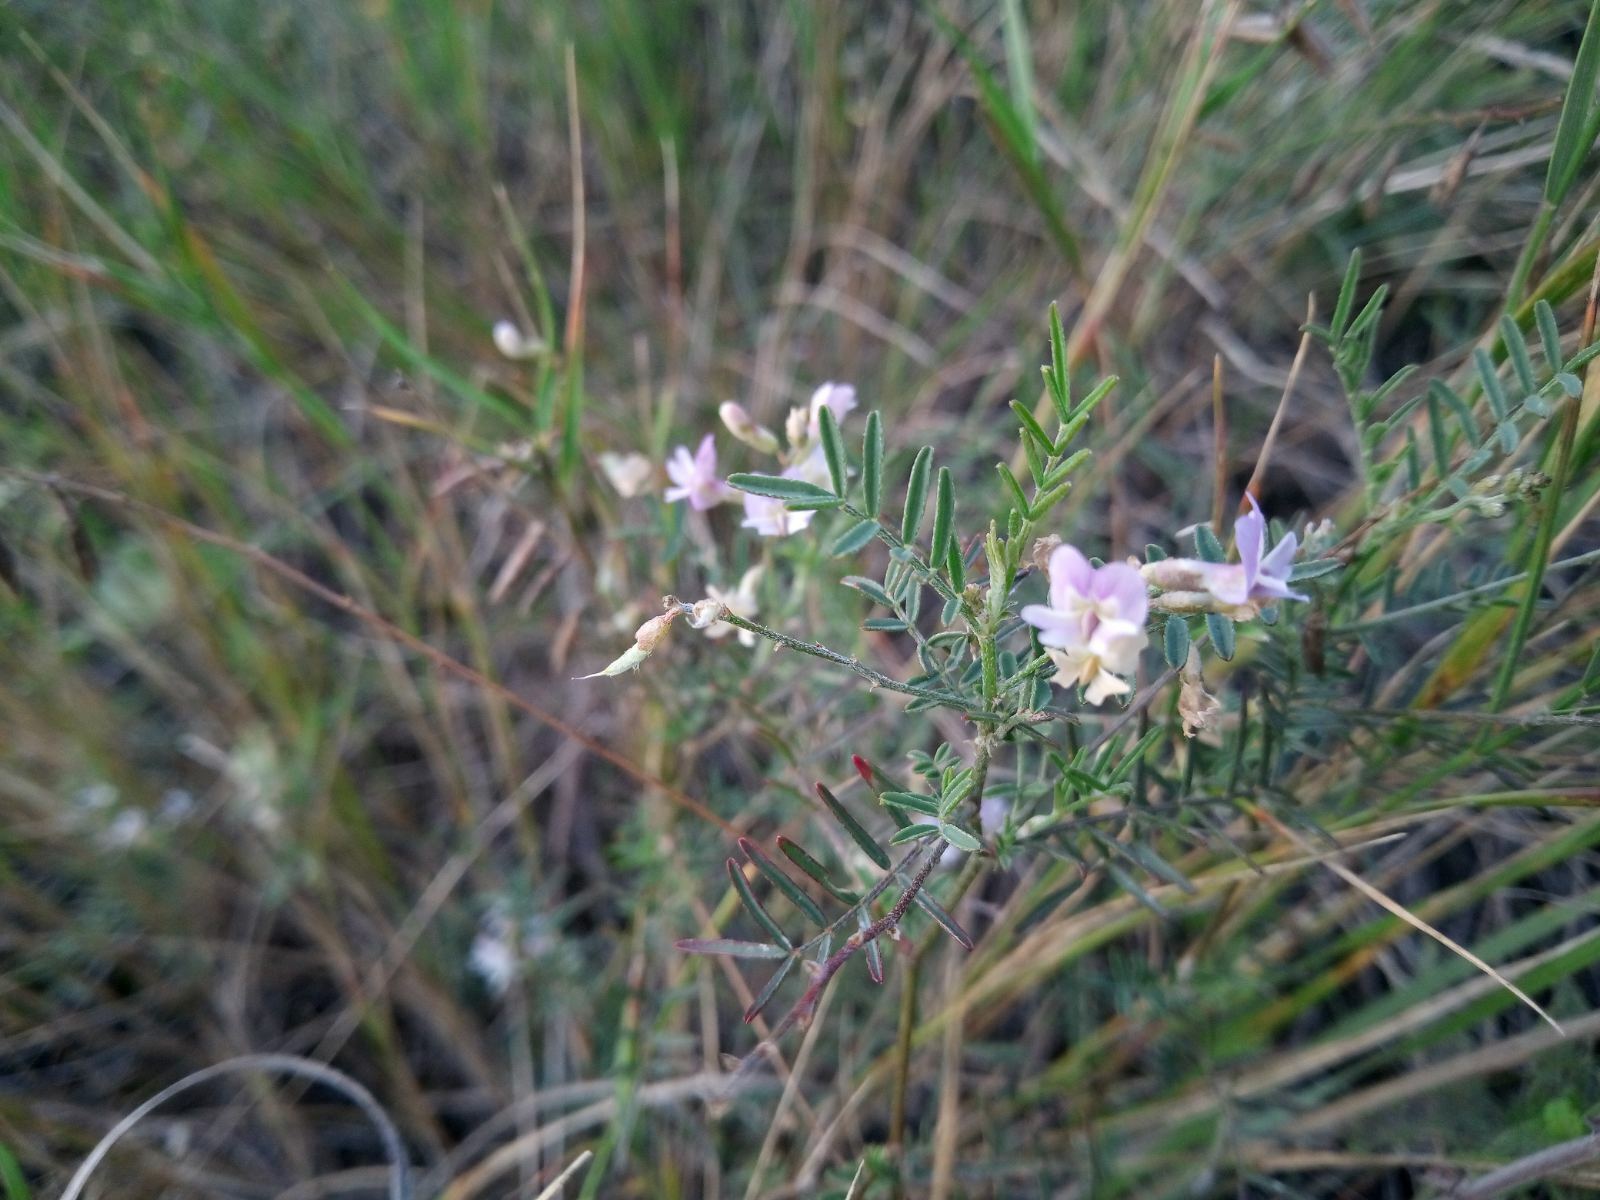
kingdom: Plantae
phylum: Tracheophyta
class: Magnoliopsida
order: Fabales
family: Fabaceae
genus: Astragalus
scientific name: Astragalus austriacus
